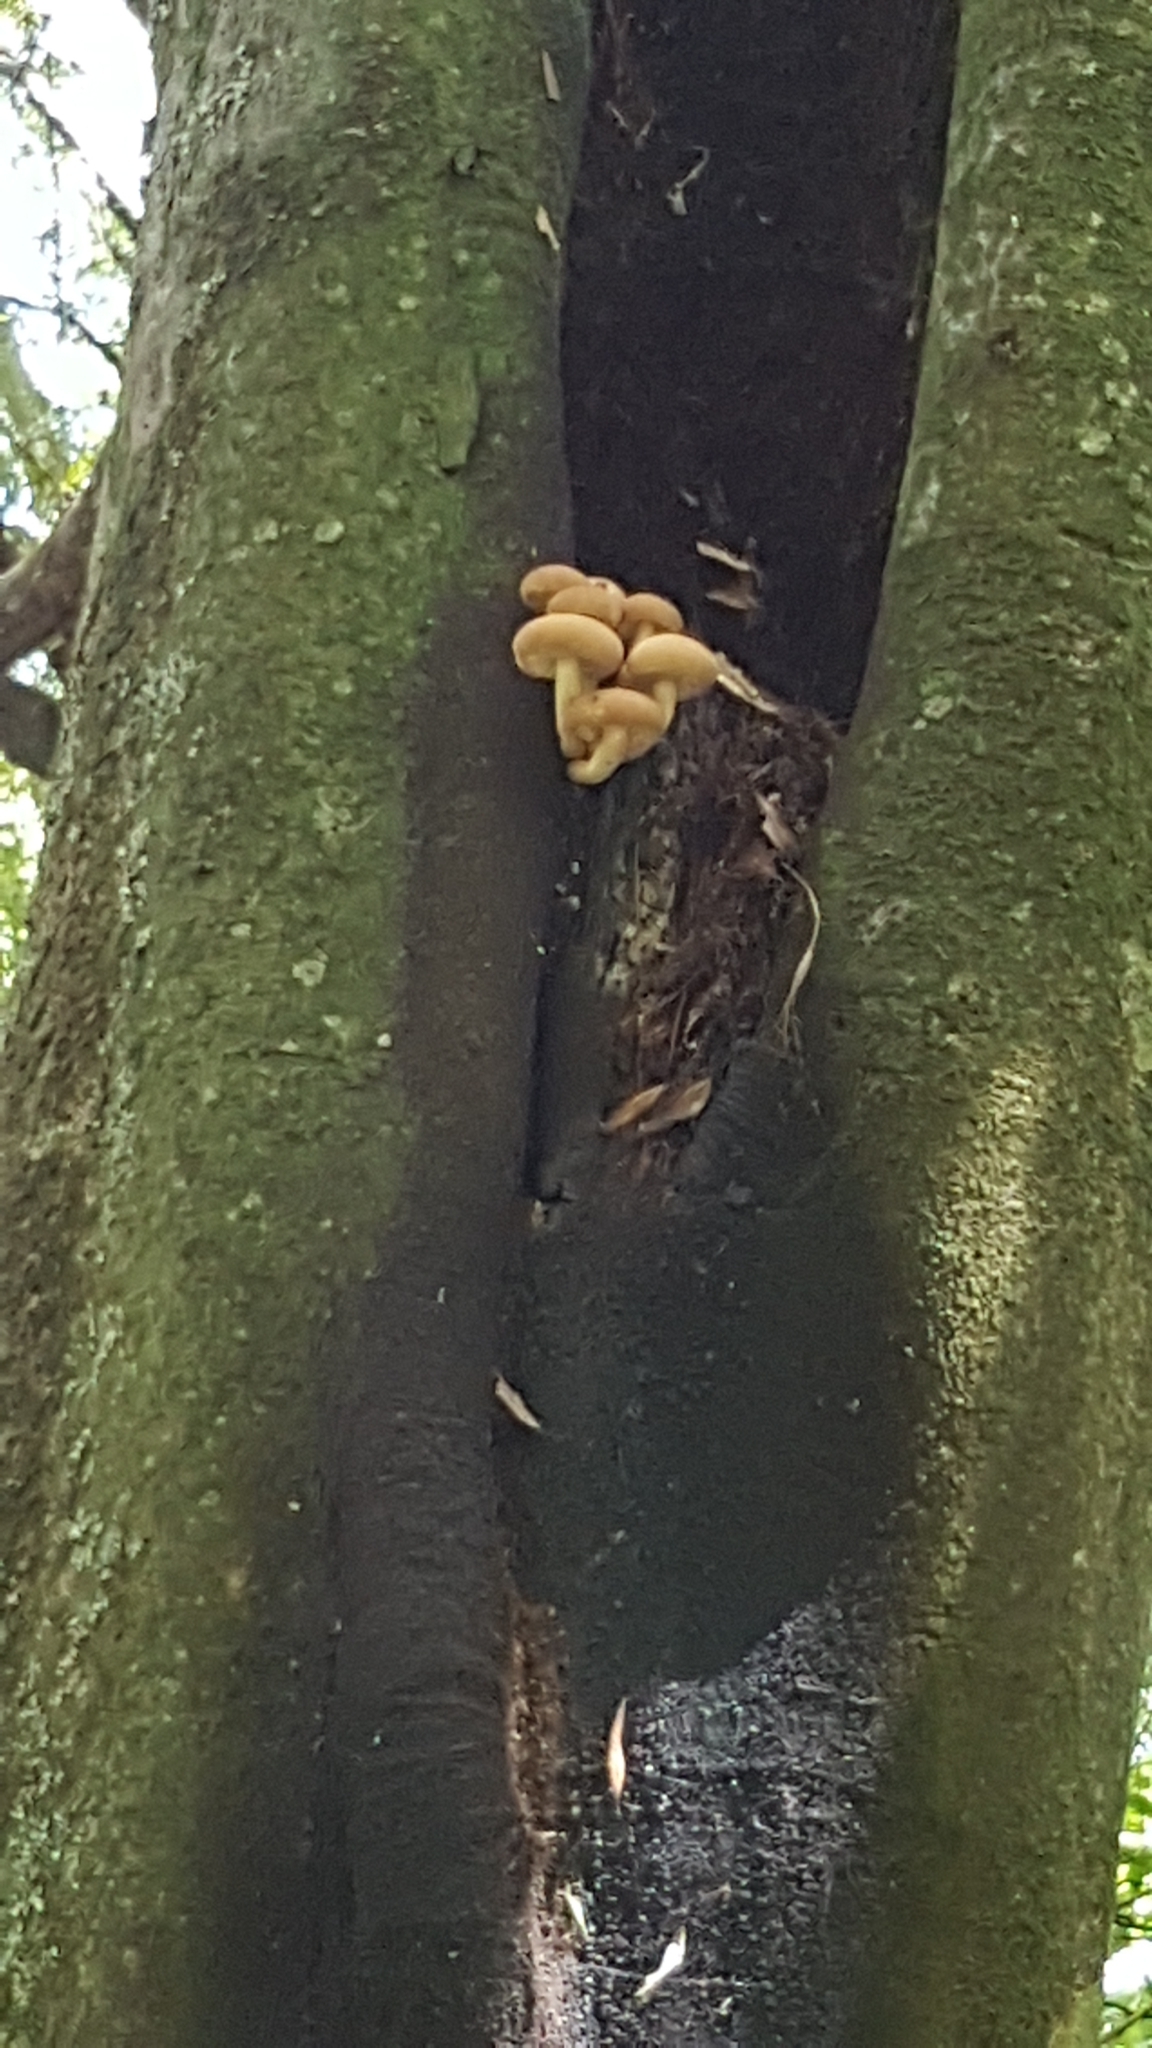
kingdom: Fungi
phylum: Basidiomycota
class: Agaricomycetes
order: Agaricales
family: Tubariaceae
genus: Cyclocybe
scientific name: Cyclocybe parasitica
